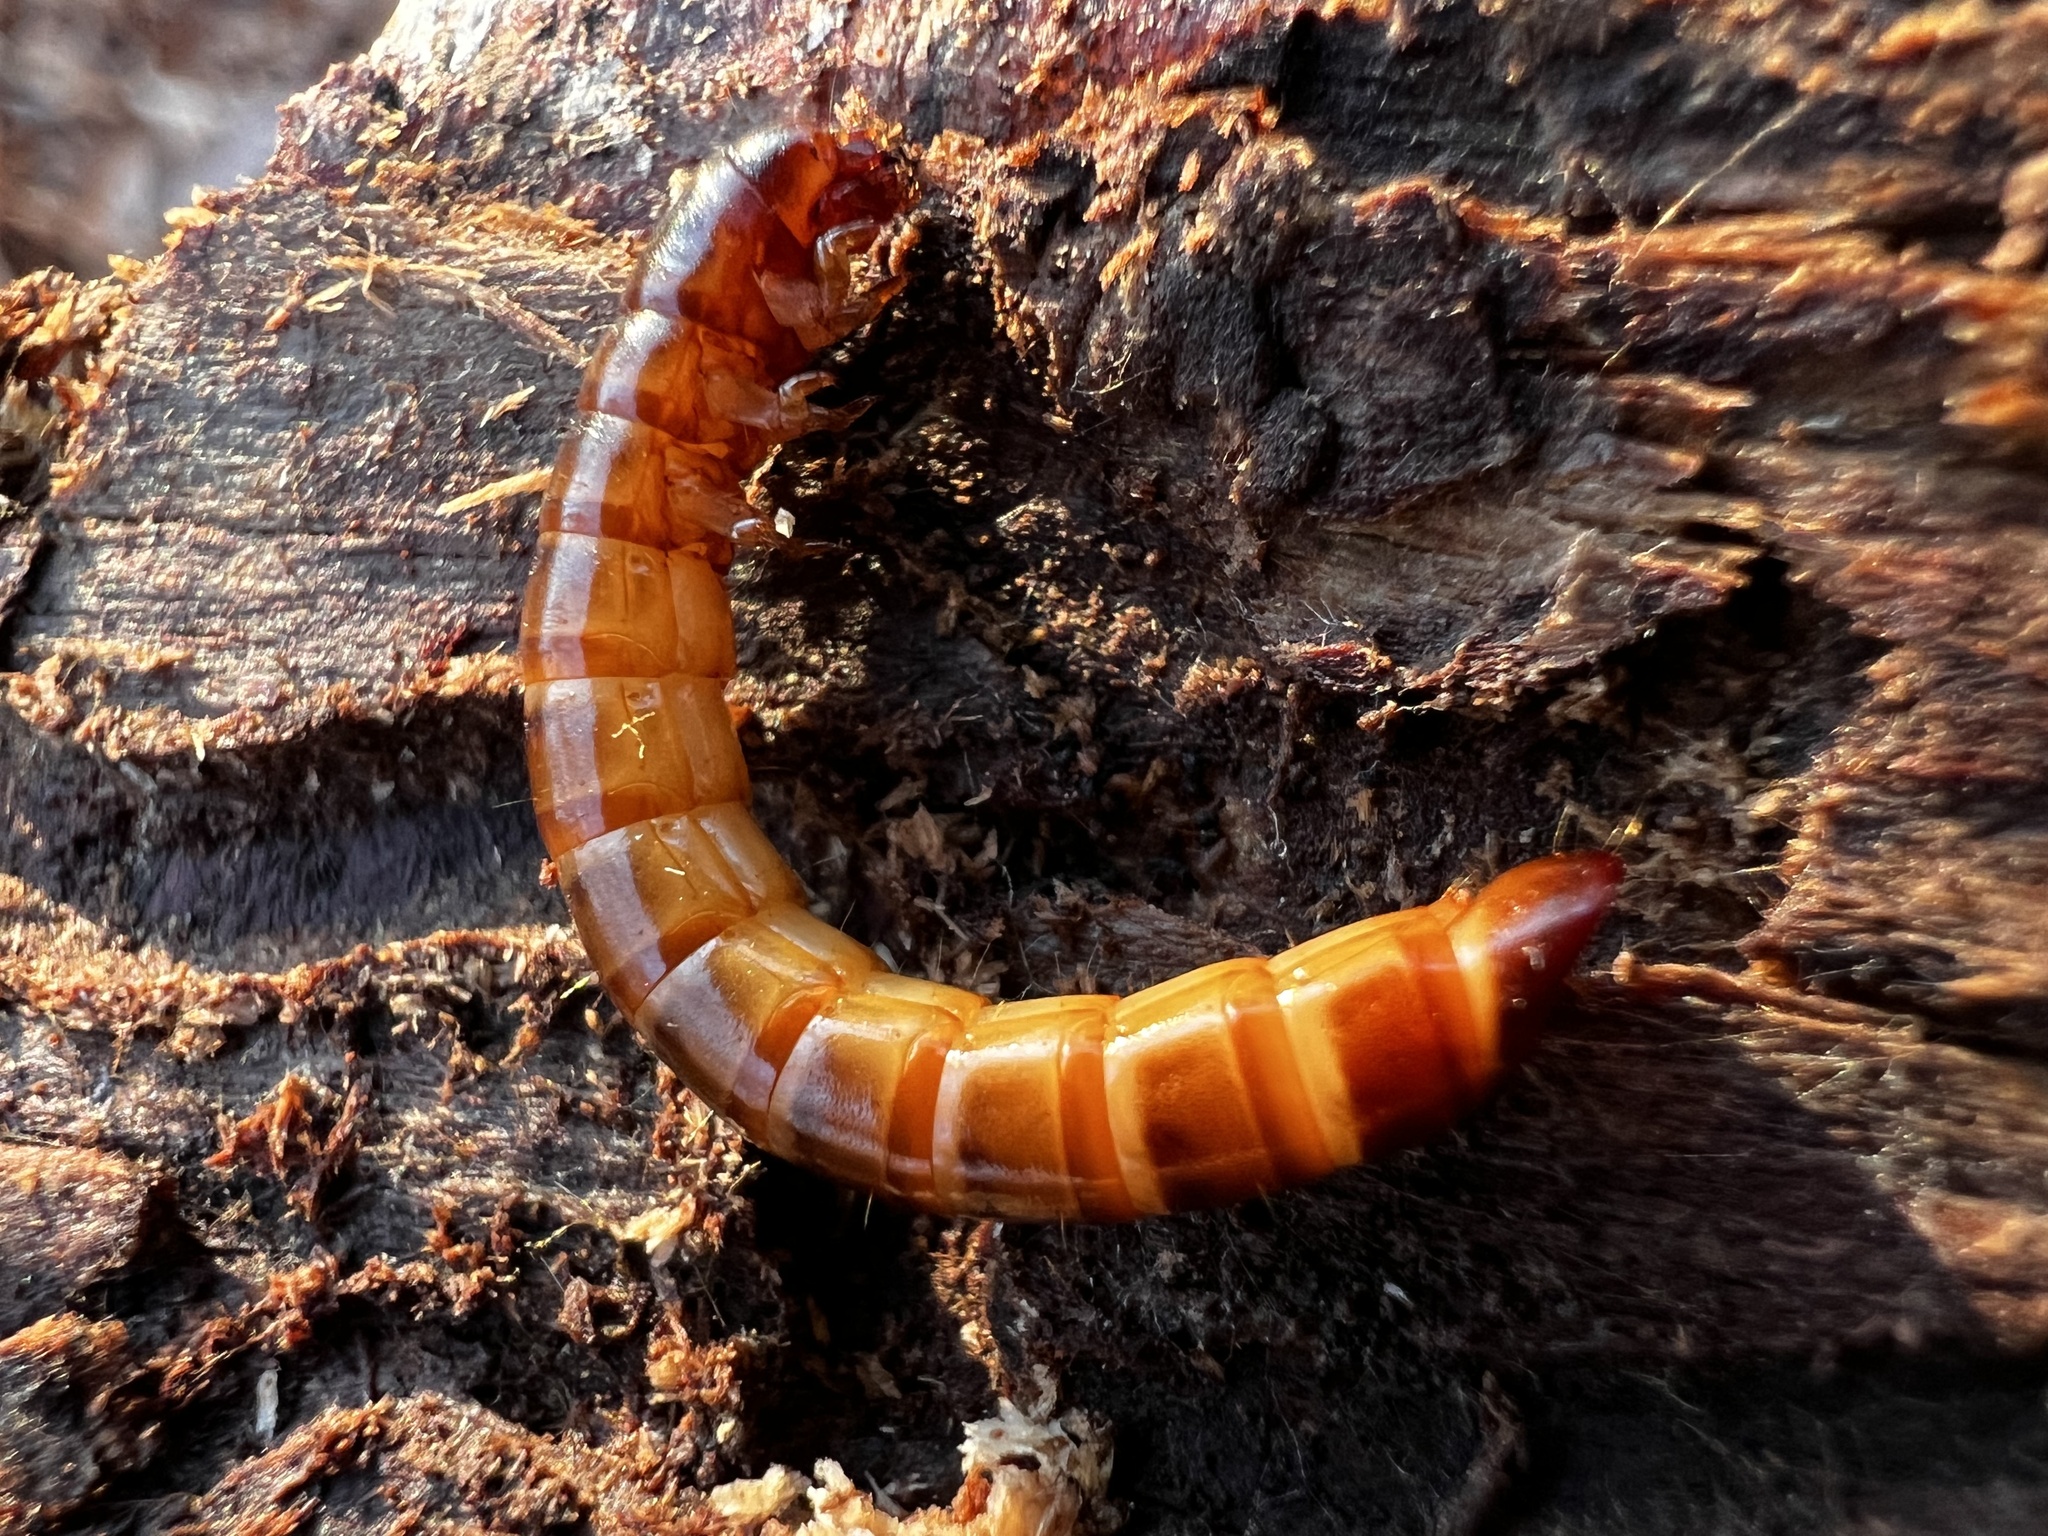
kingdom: Animalia
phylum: Arthropoda
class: Insecta
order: Coleoptera
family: Tenebrionidae
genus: Meracantha
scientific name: Meracantha contracta
